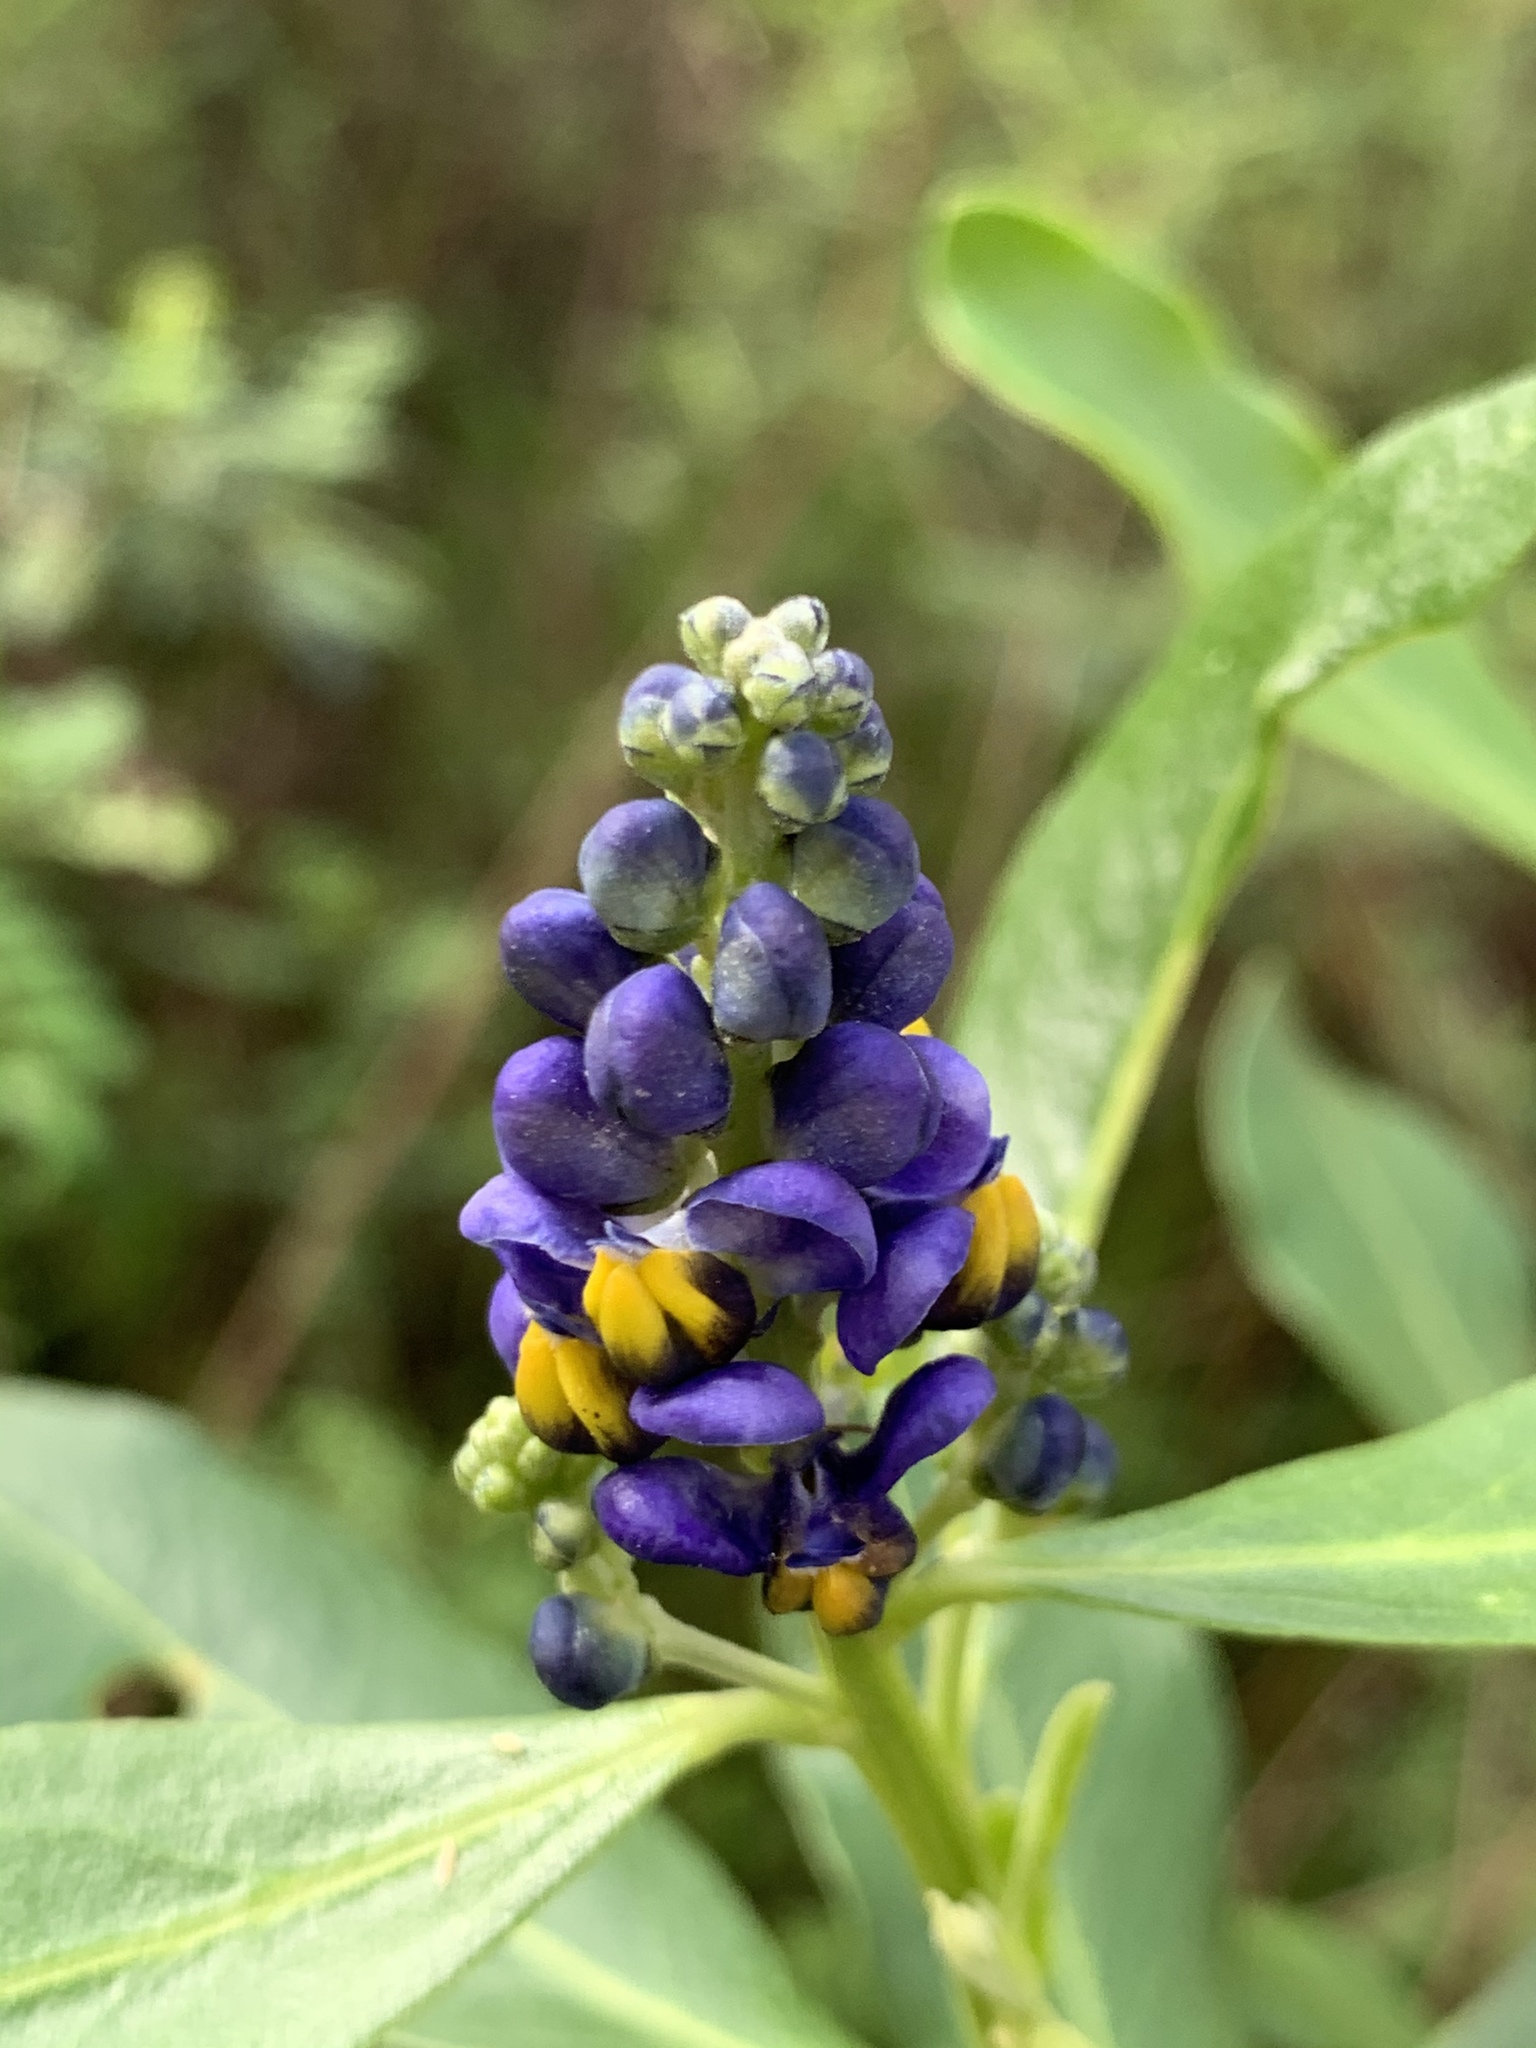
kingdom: Plantae
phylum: Tracheophyta
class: Magnoliopsida
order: Fabales
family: Polygalaceae
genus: Monnina
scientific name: Monnina salicifolia
